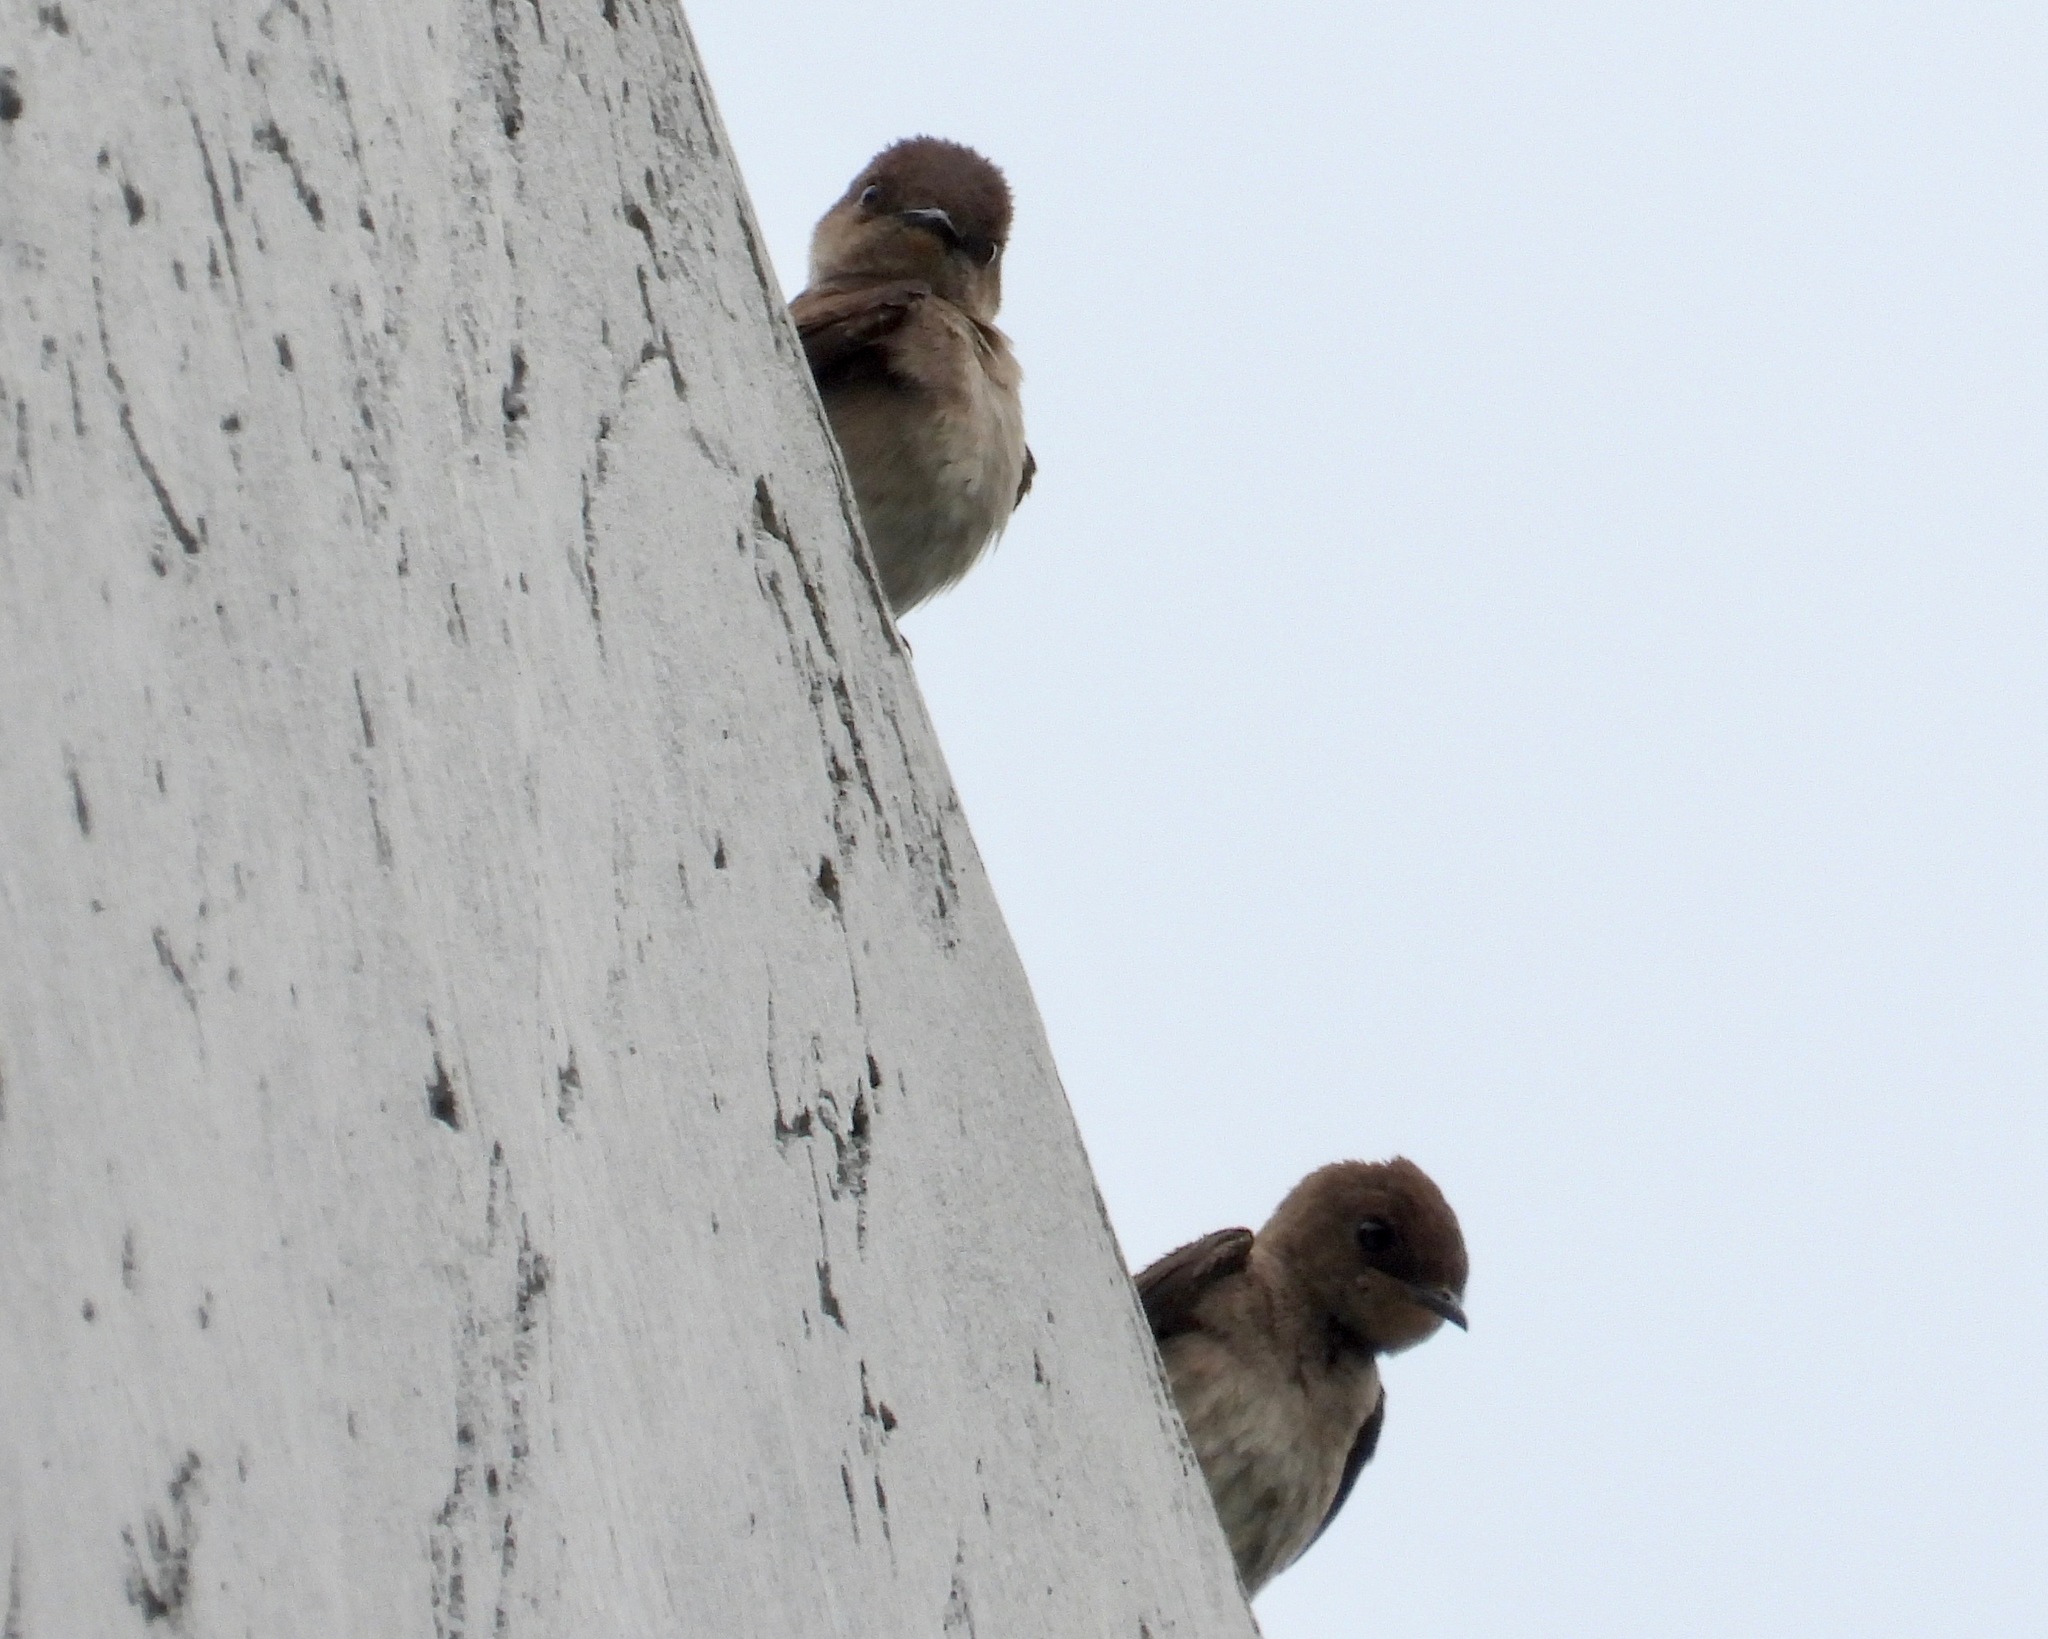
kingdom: Animalia
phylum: Chordata
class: Aves
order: Passeriformes
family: Hirundinidae
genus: Stelgidopteryx
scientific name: Stelgidopteryx serripennis
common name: Northern rough-winged swallow
